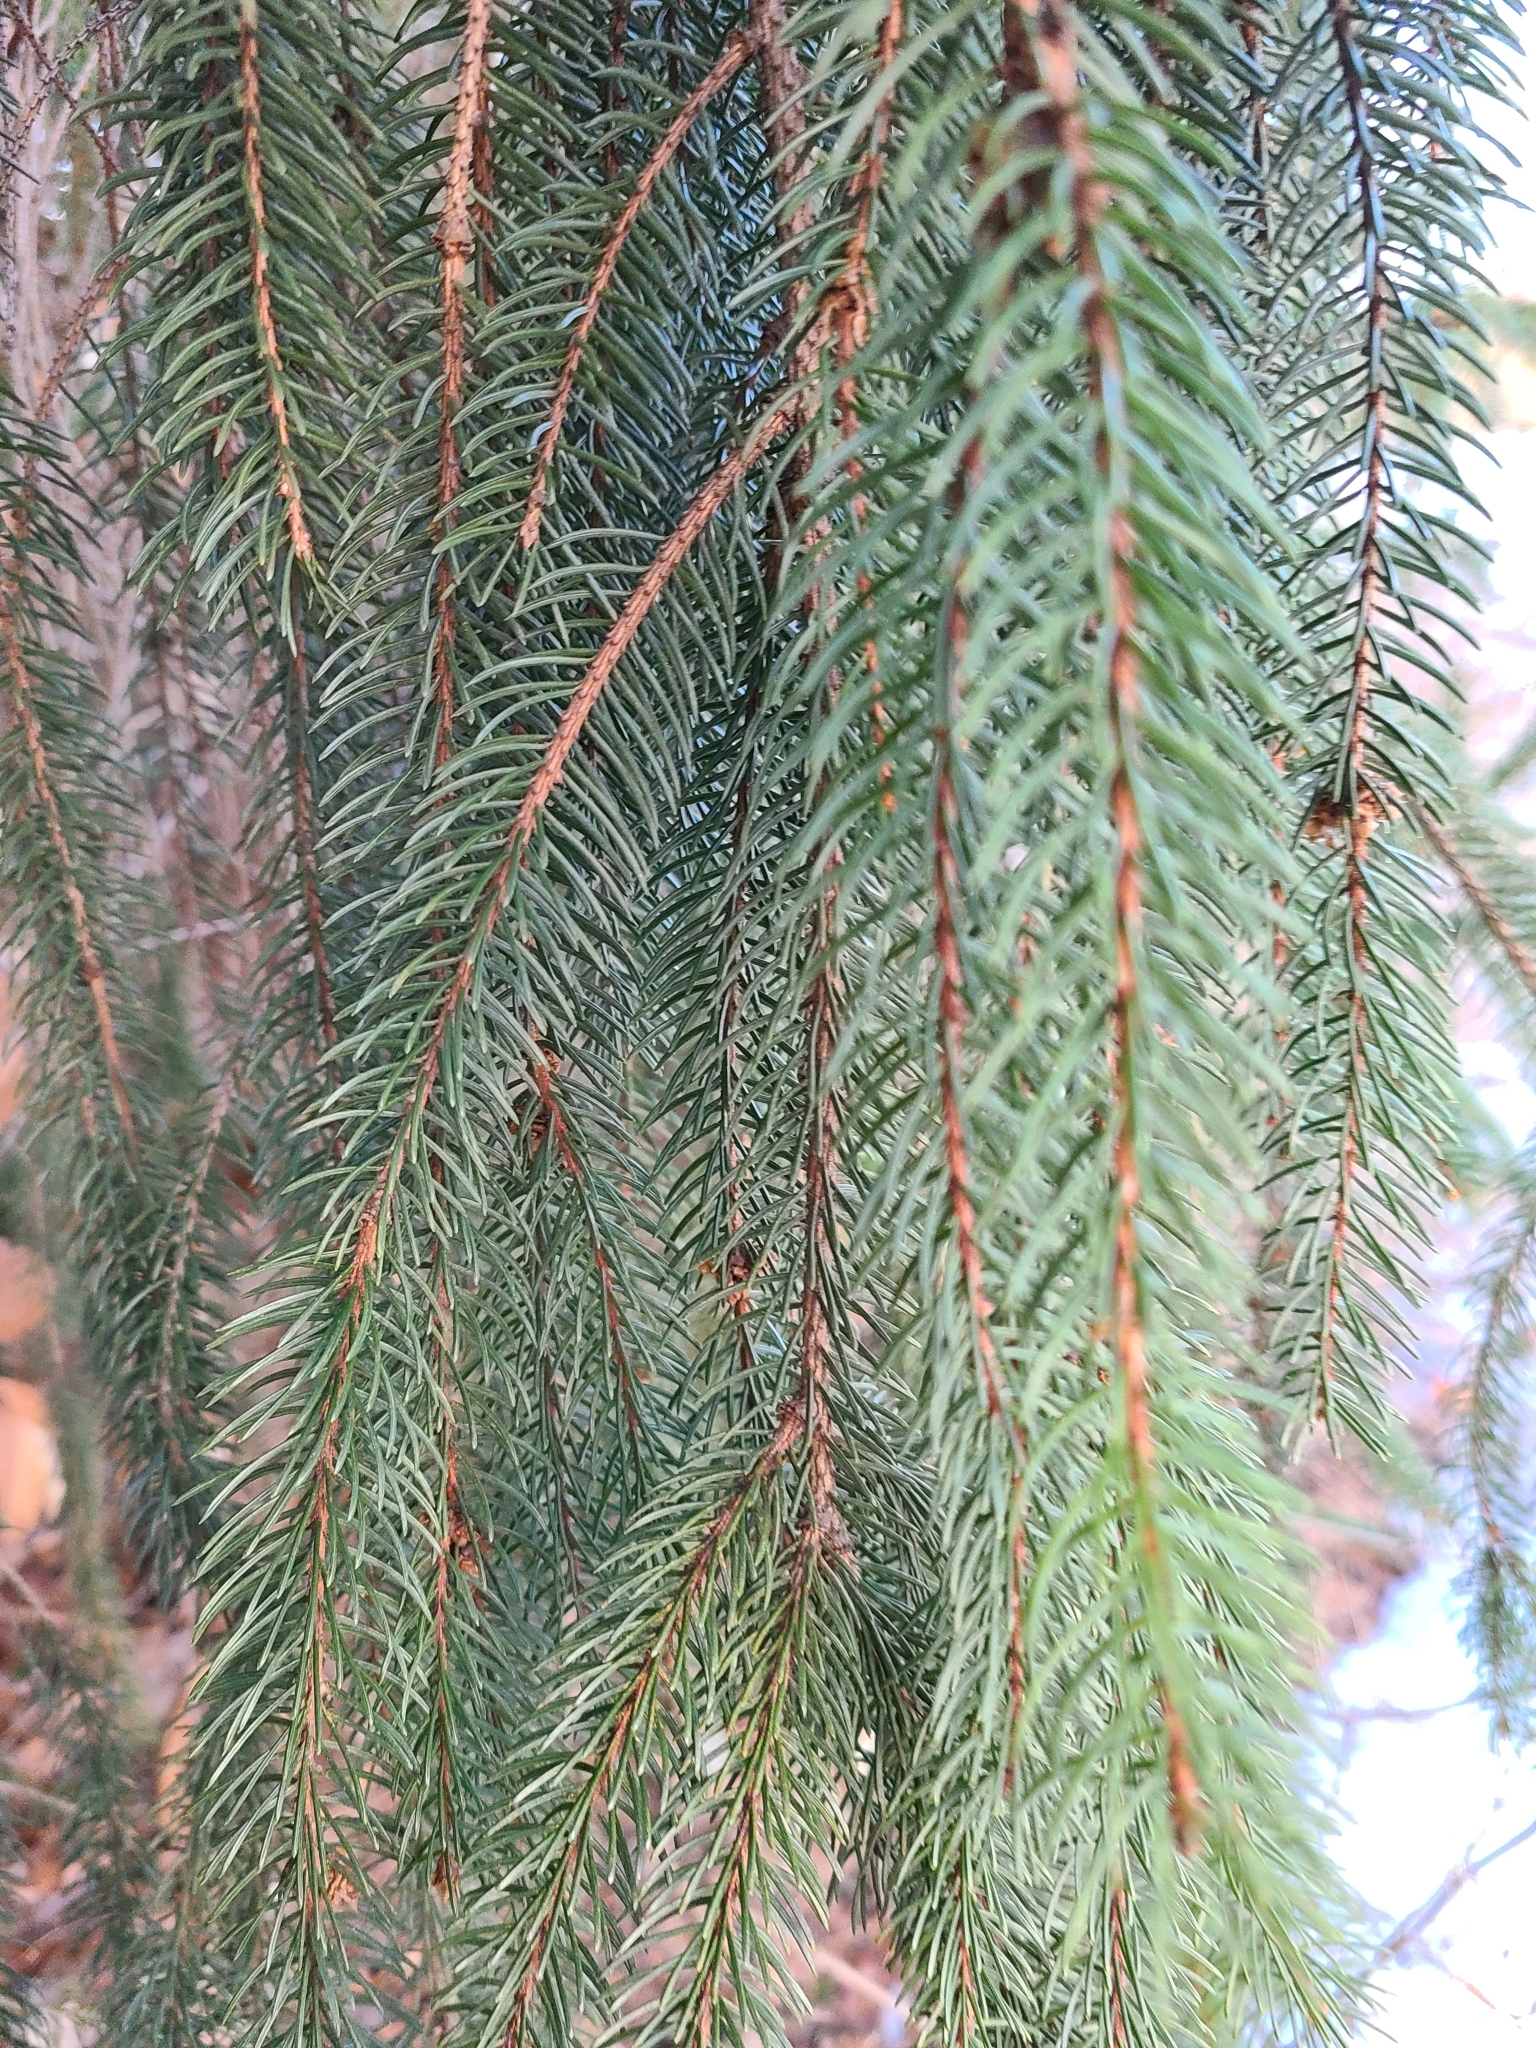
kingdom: Plantae
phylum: Tracheophyta
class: Pinopsida
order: Pinales
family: Pinaceae
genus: Picea
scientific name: Picea abies
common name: Norway spruce
